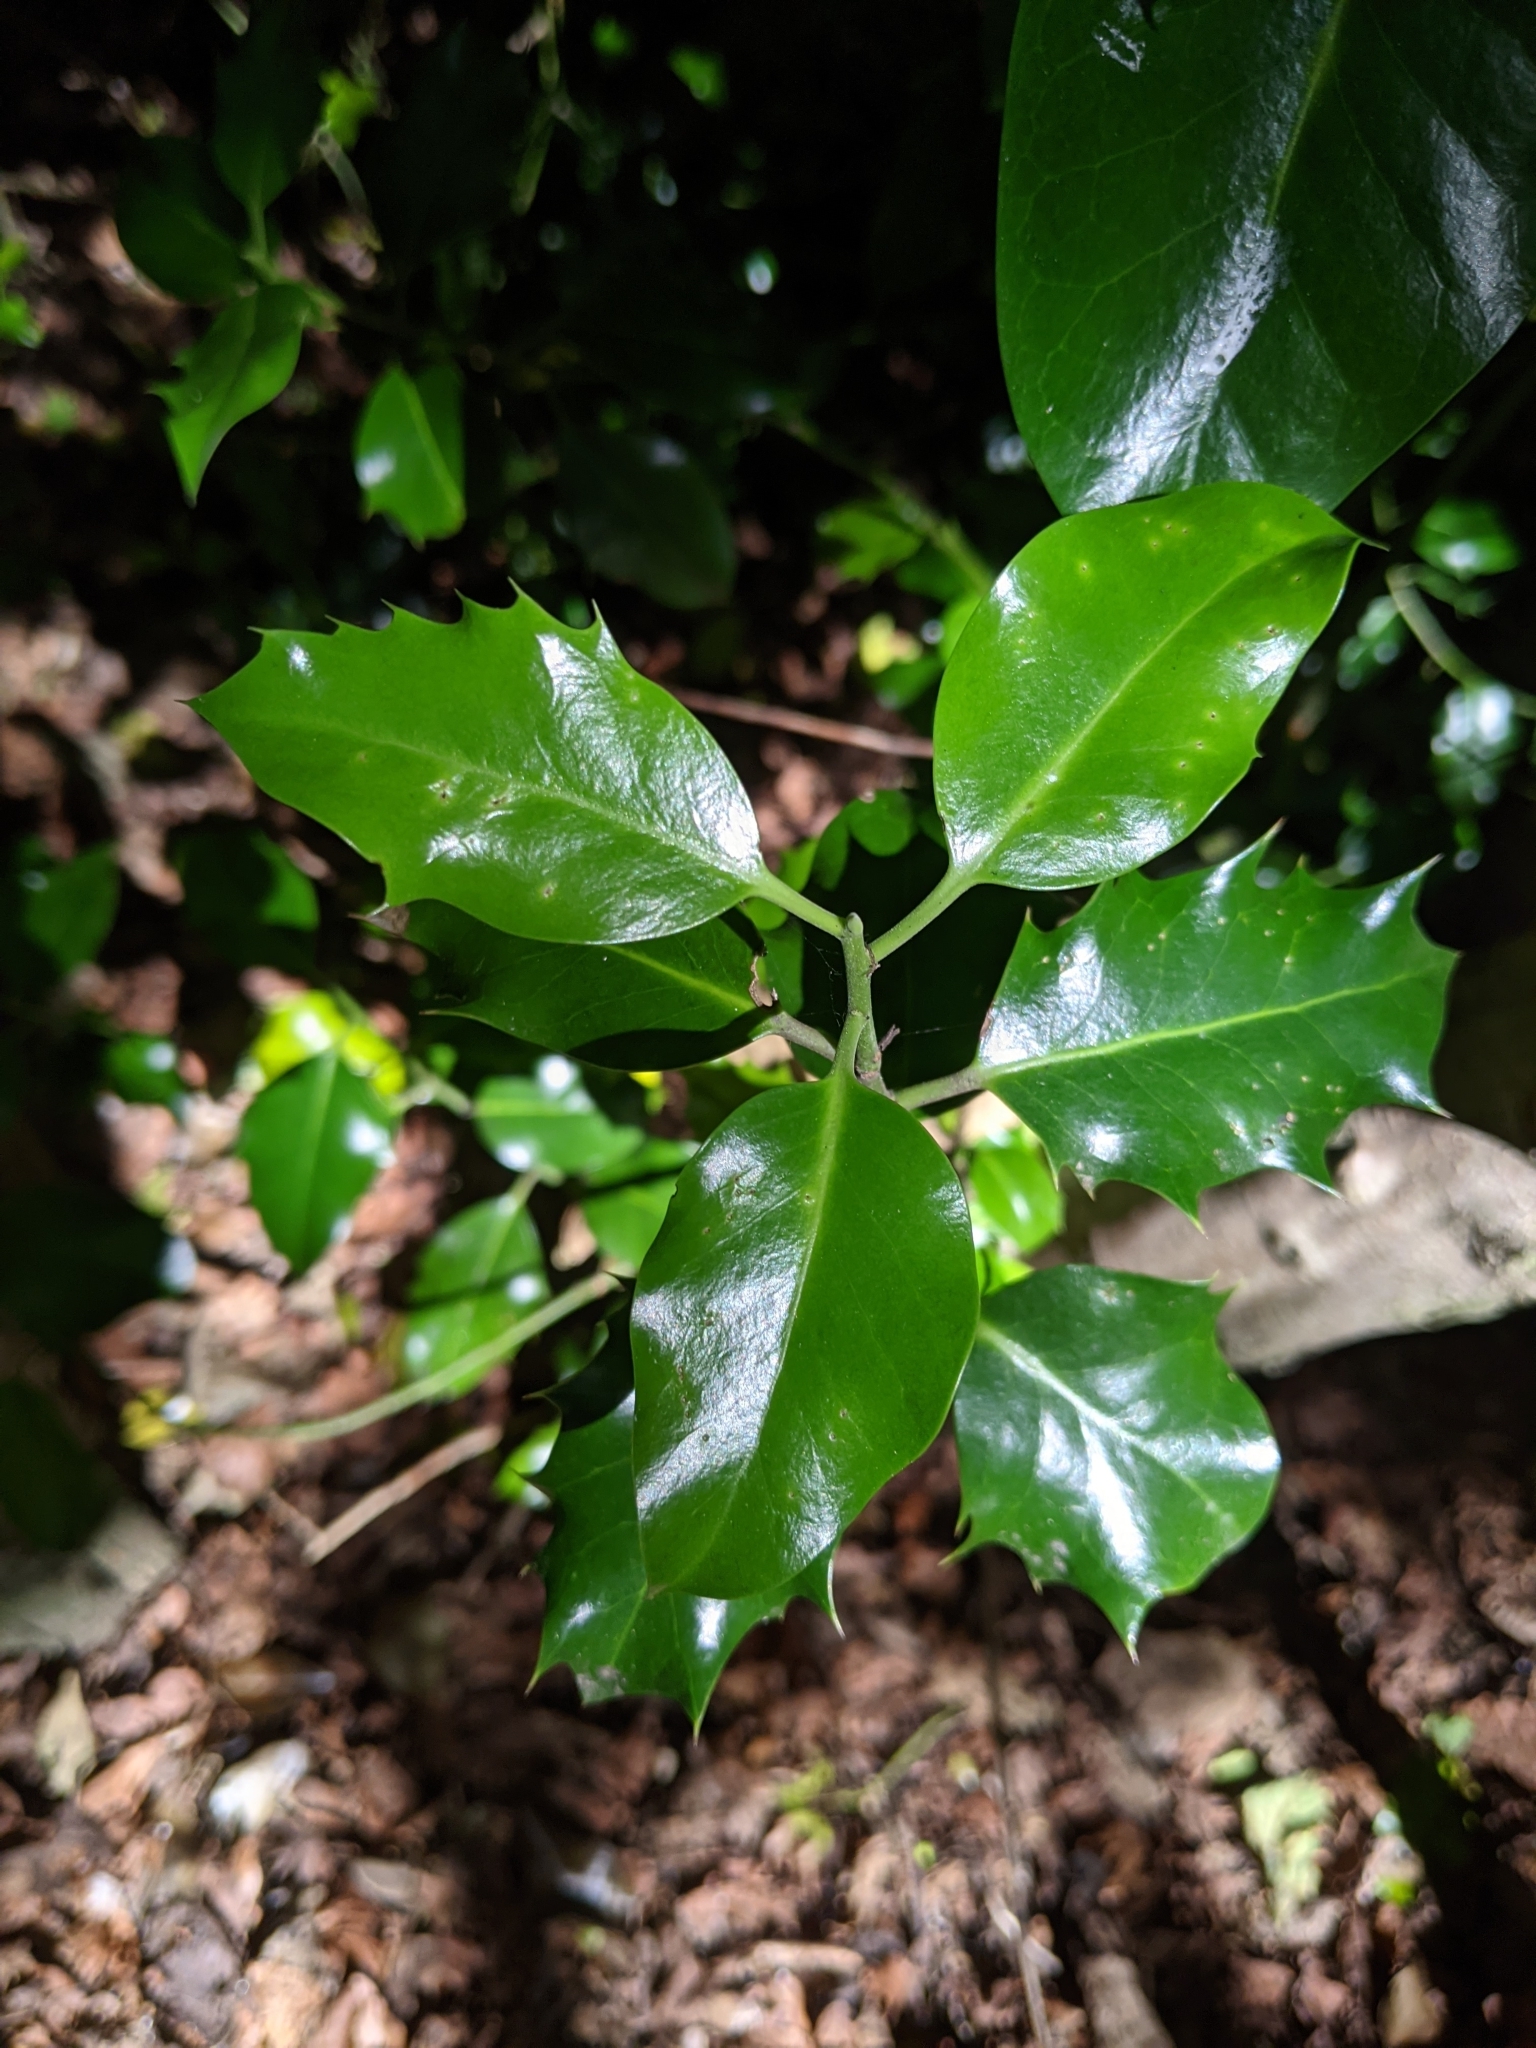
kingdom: Plantae
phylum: Tracheophyta
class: Magnoliopsida
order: Aquifoliales
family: Aquifoliaceae
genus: Ilex
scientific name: Ilex aquifolium
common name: English holly
